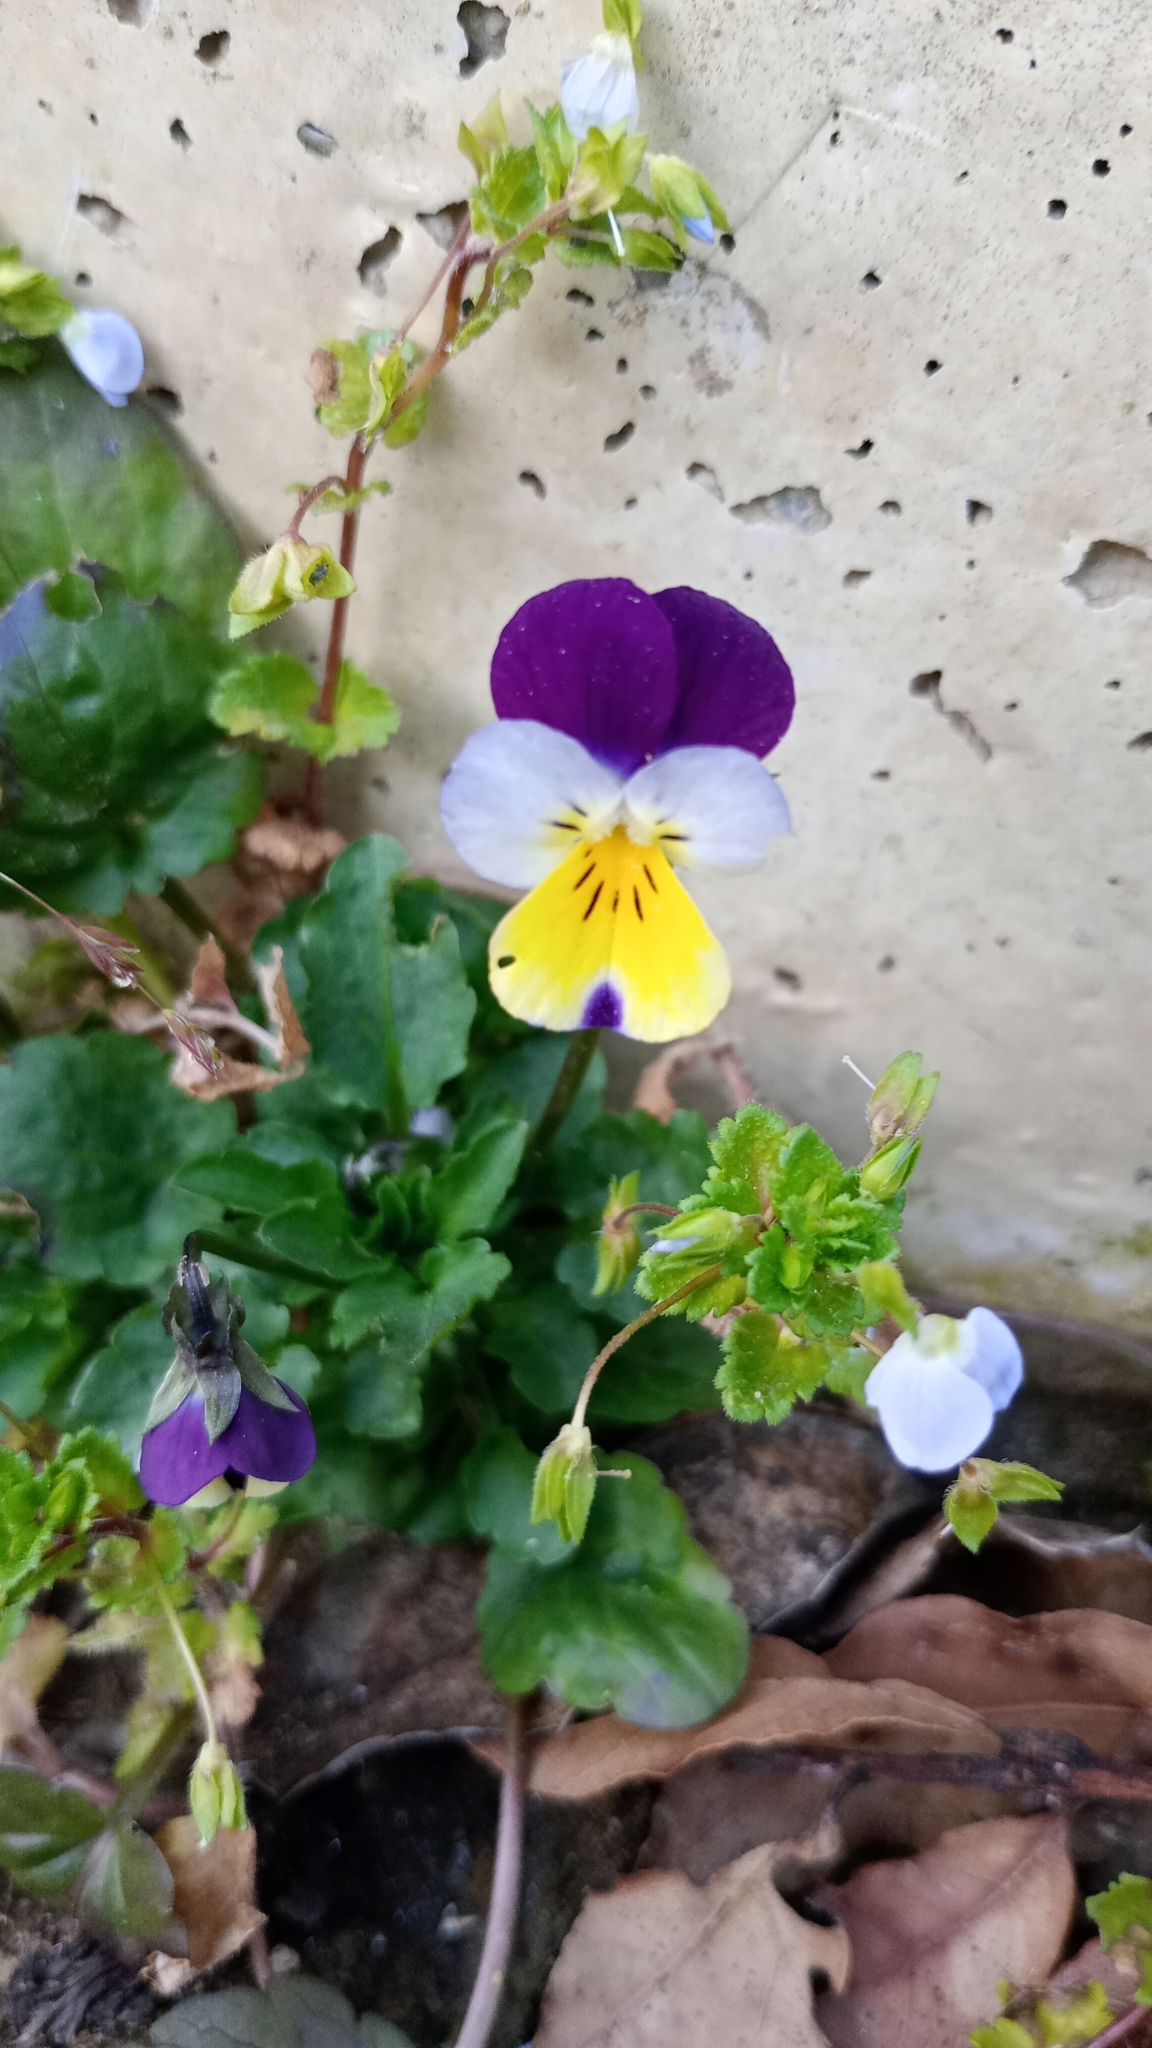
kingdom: Plantae
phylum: Tracheophyta
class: Magnoliopsida
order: Malpighiales
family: Violaceae
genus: Viola
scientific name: Viola tricolor
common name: Pansy
